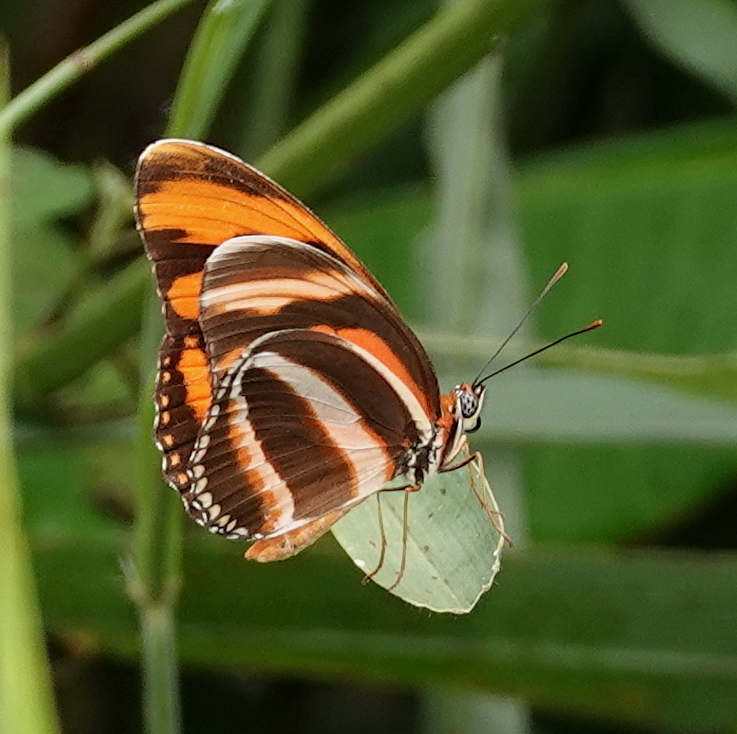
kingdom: Animalia
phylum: Arthropoda
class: Insecta
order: Lepidoptera
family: Nymphalidae
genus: Dryadula
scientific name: Dryadula phaetusa
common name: Banded orange heliconian
